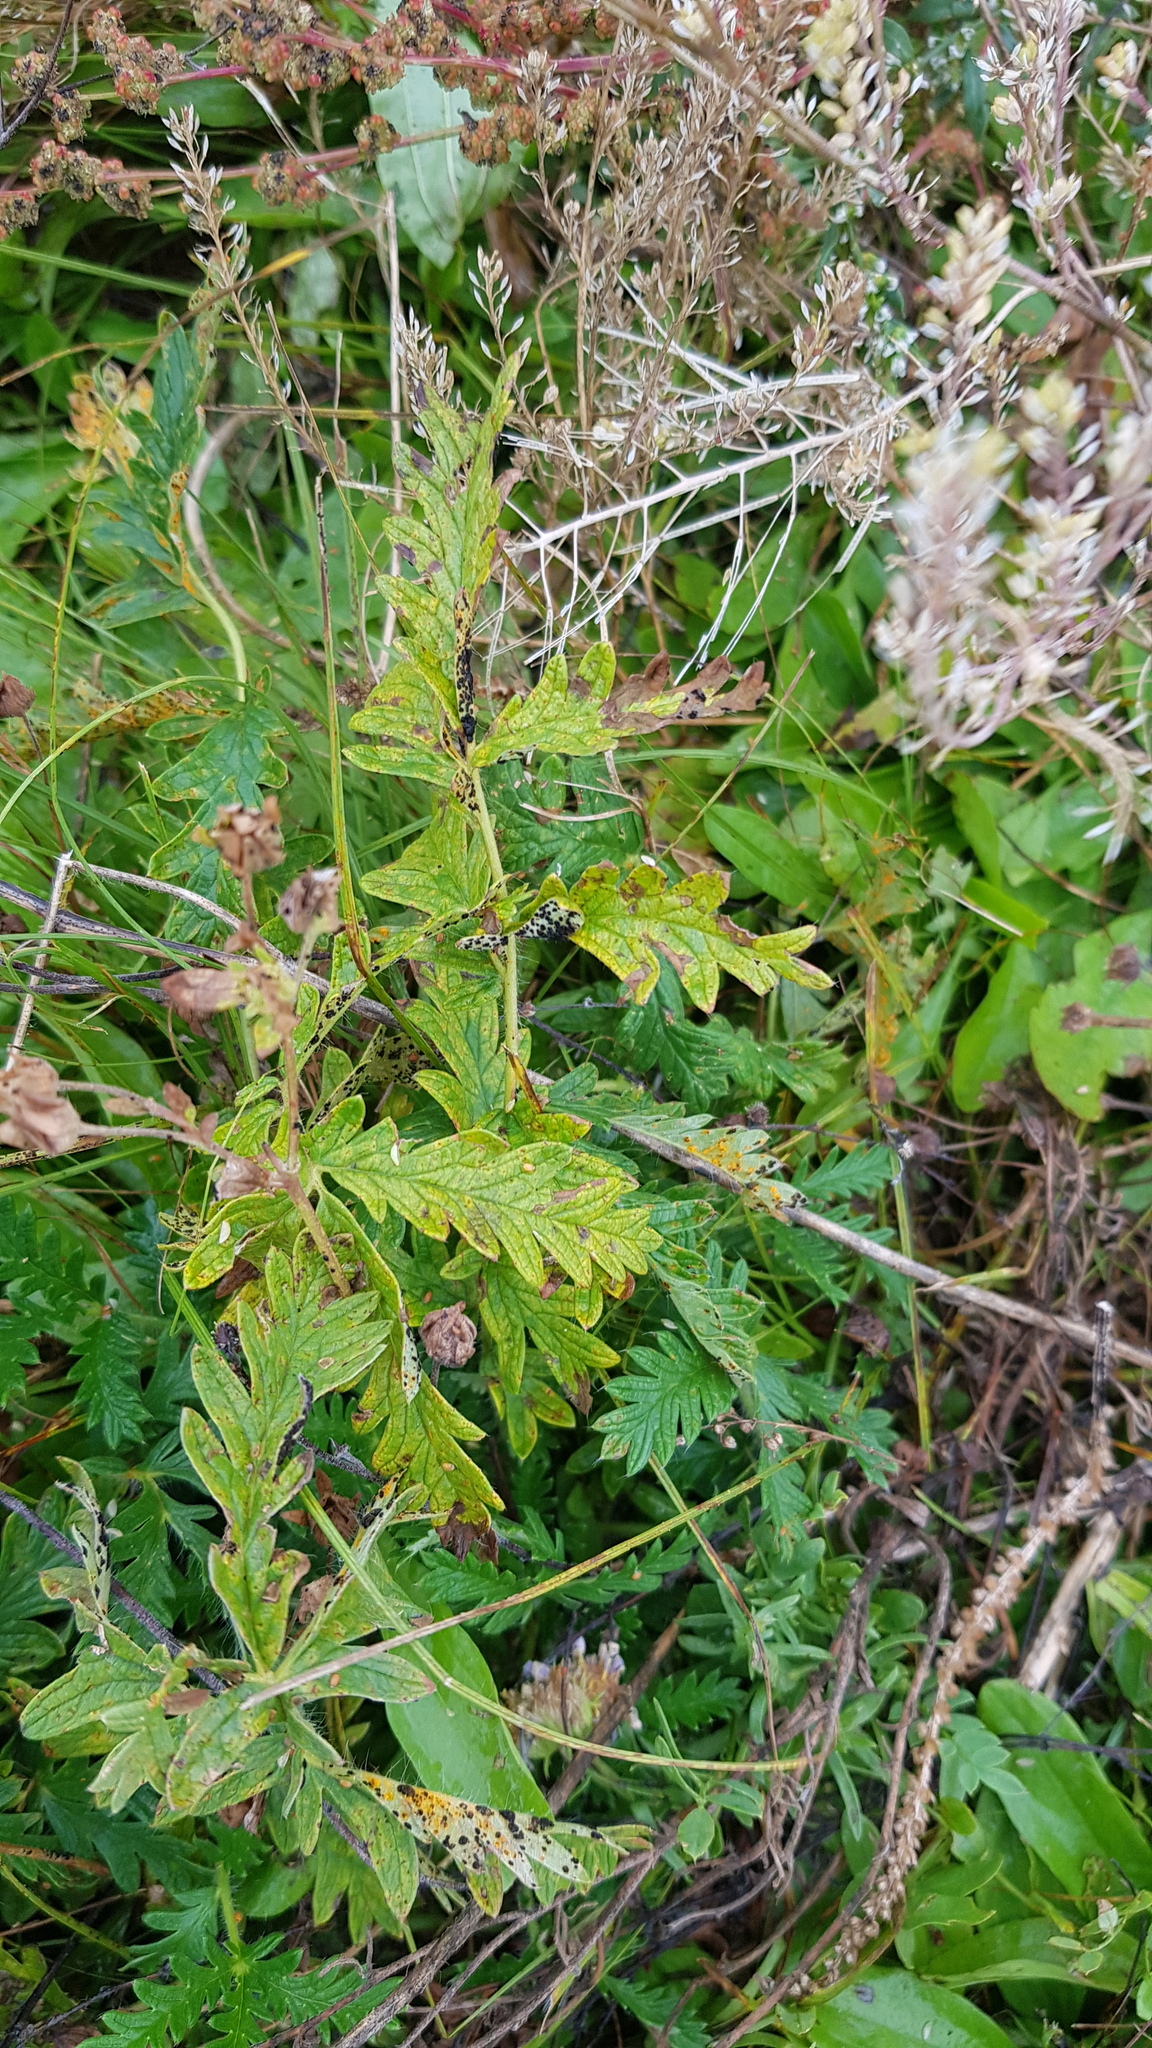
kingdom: Plantae
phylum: Tracheophyta
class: Magnoliopsida
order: Rosales
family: Rosaceae
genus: Potentilla
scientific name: Potentilla longifolia
